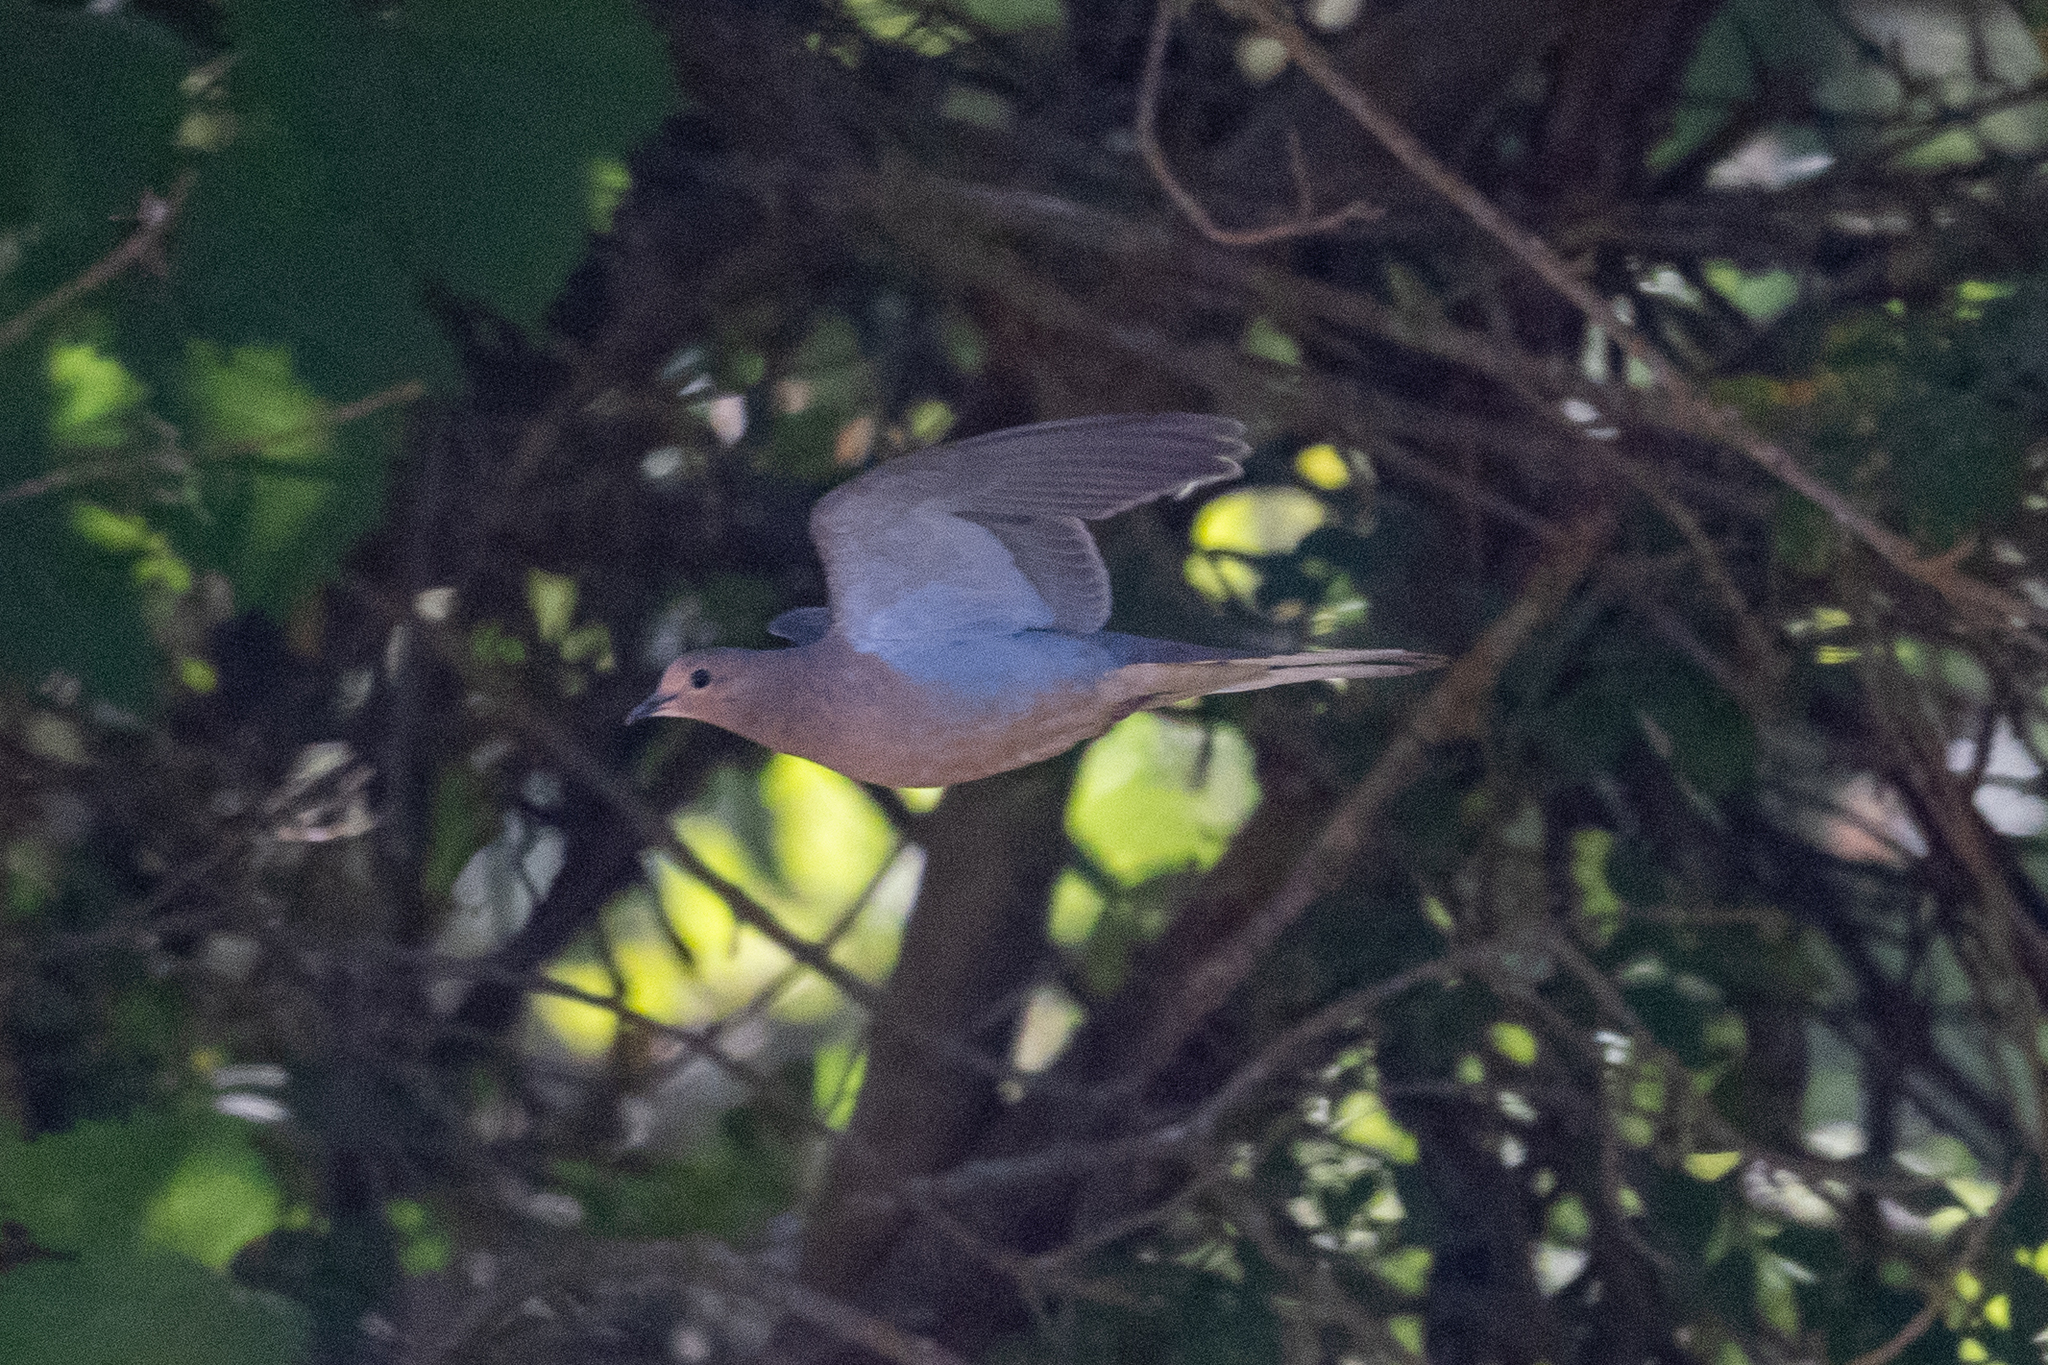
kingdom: Animalia
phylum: Chordata
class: Aves
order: Columbiformes
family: Columbidae
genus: Zenaida
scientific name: Zenaida macroura
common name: Mourning dove
